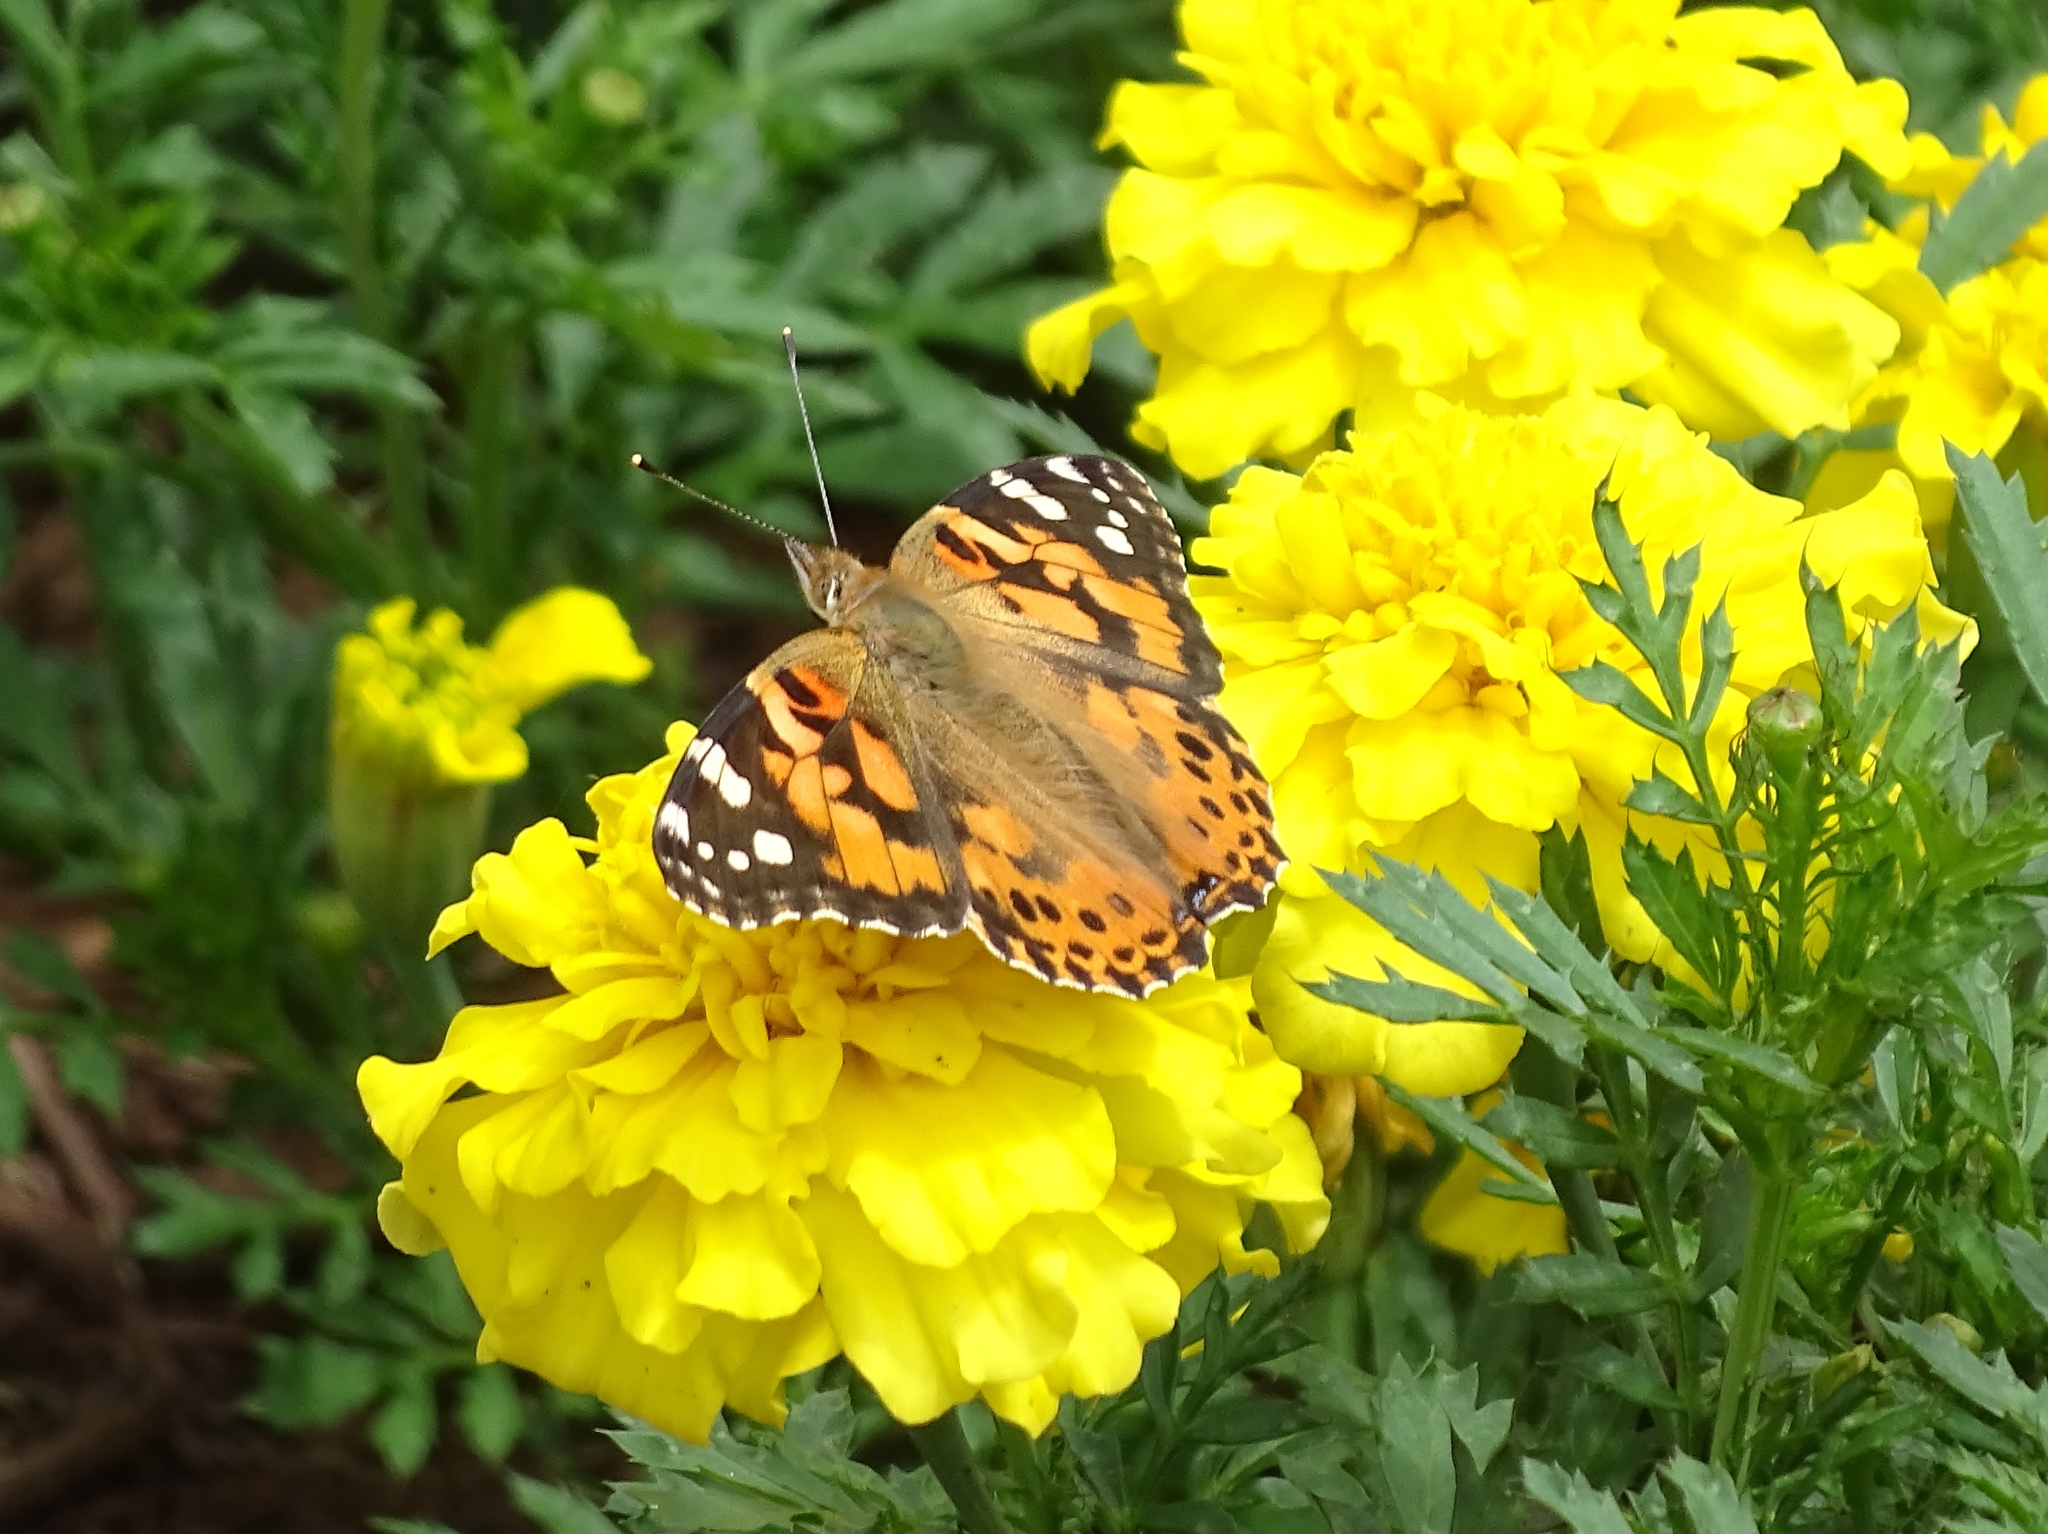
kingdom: Animalia
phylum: Arthropoda
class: Insecta
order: Lepidoptera
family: Nymphalidae
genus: Vanessa
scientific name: Vanessa cardui
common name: Painted lady
